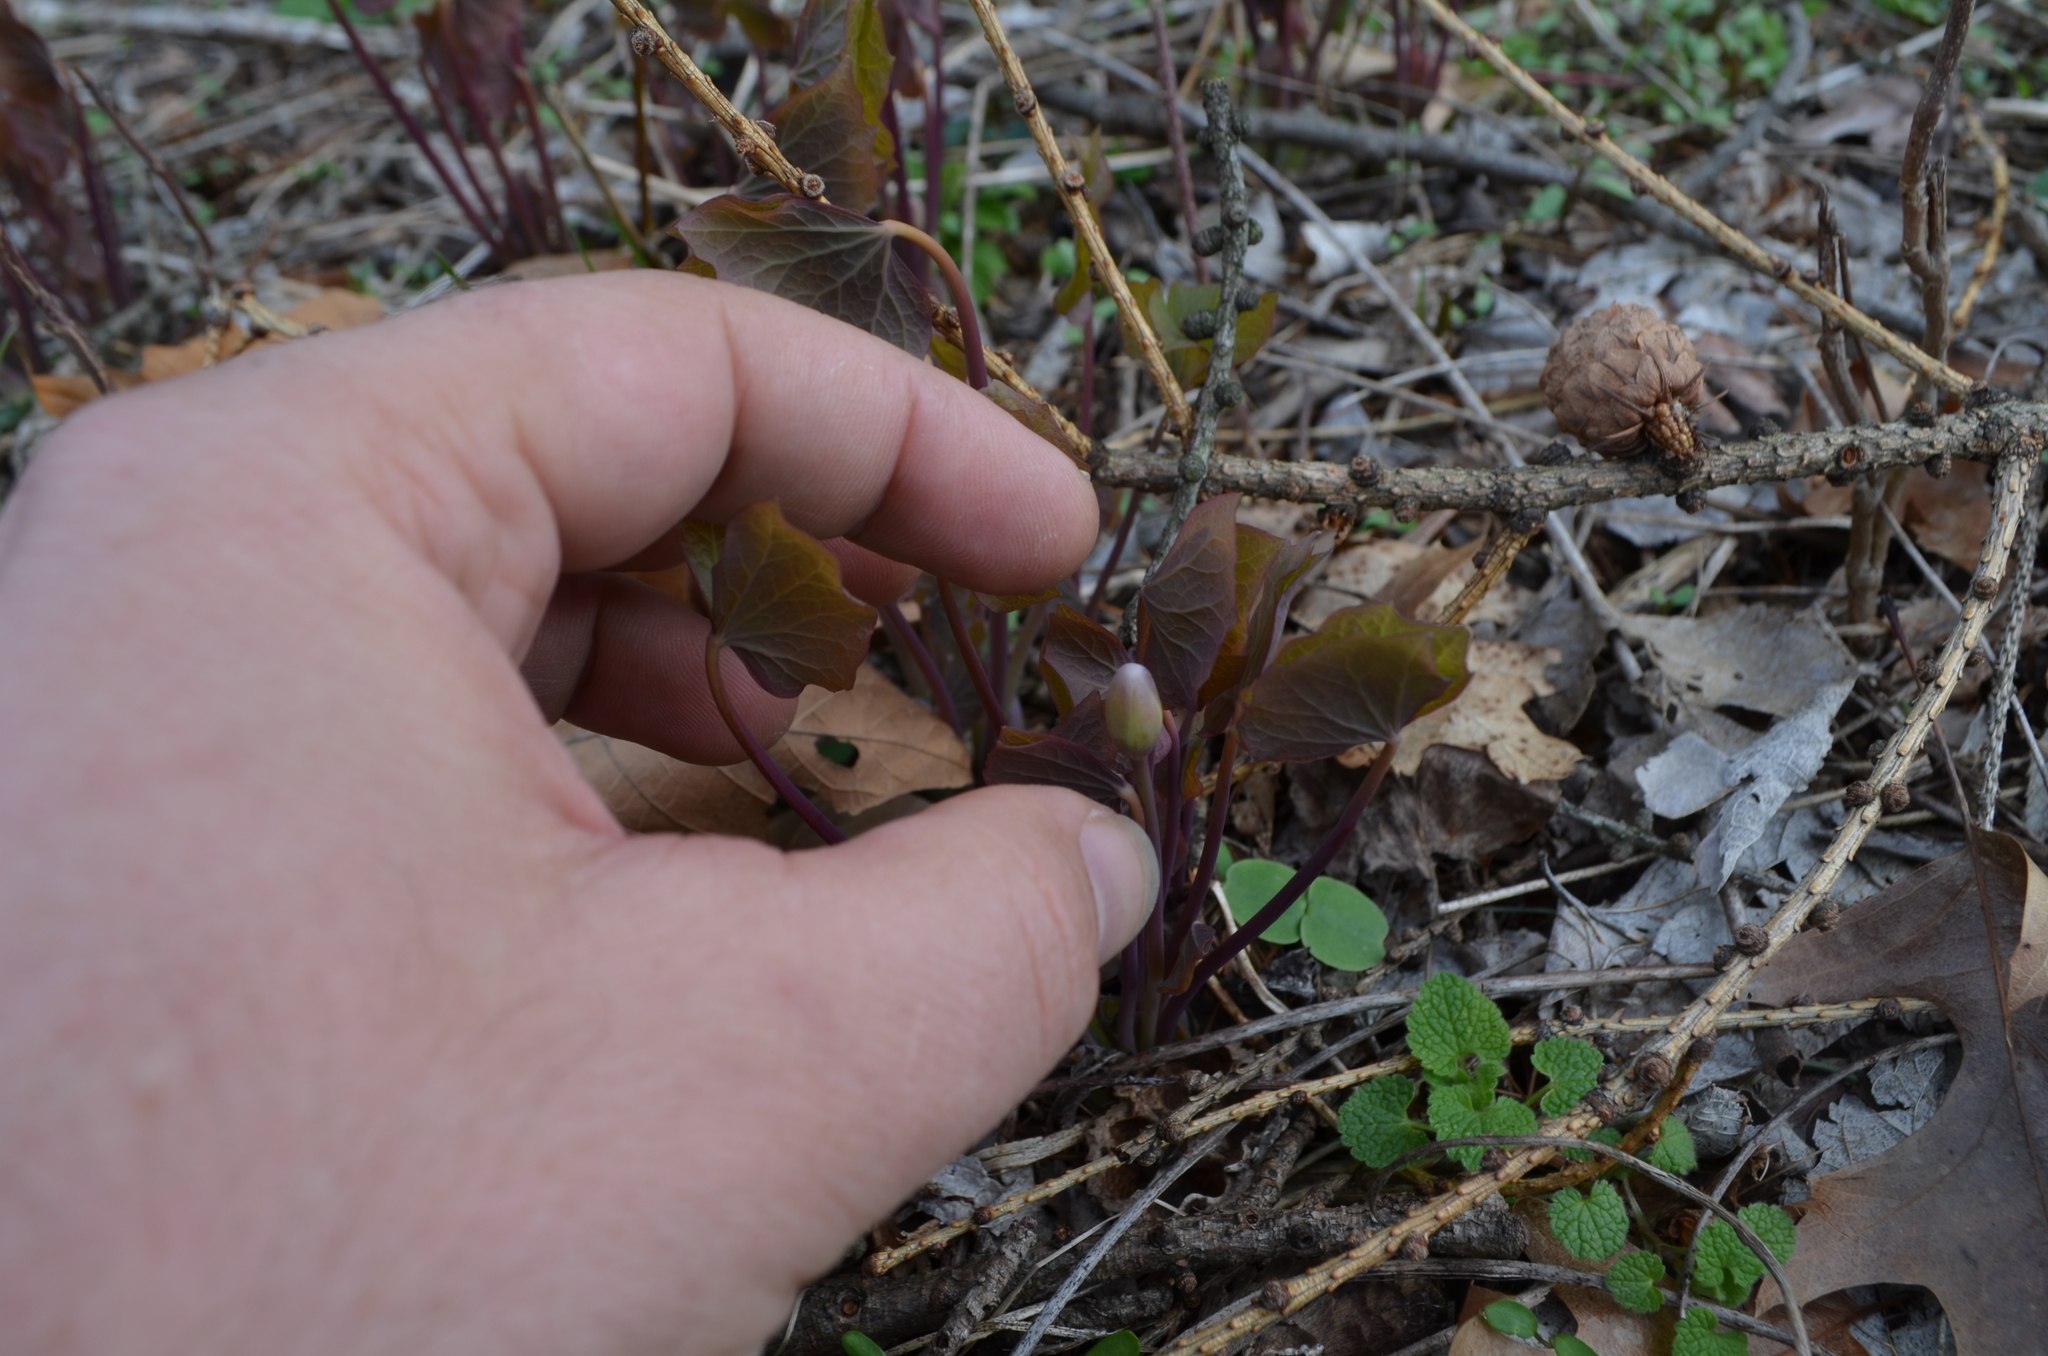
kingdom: Plantae
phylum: Tracheophyta
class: Magnoliopsida
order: Ranunculales
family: Berberidaceae
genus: Jeffersonia
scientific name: Jeffersonia diphylla
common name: Rheumatism-root
